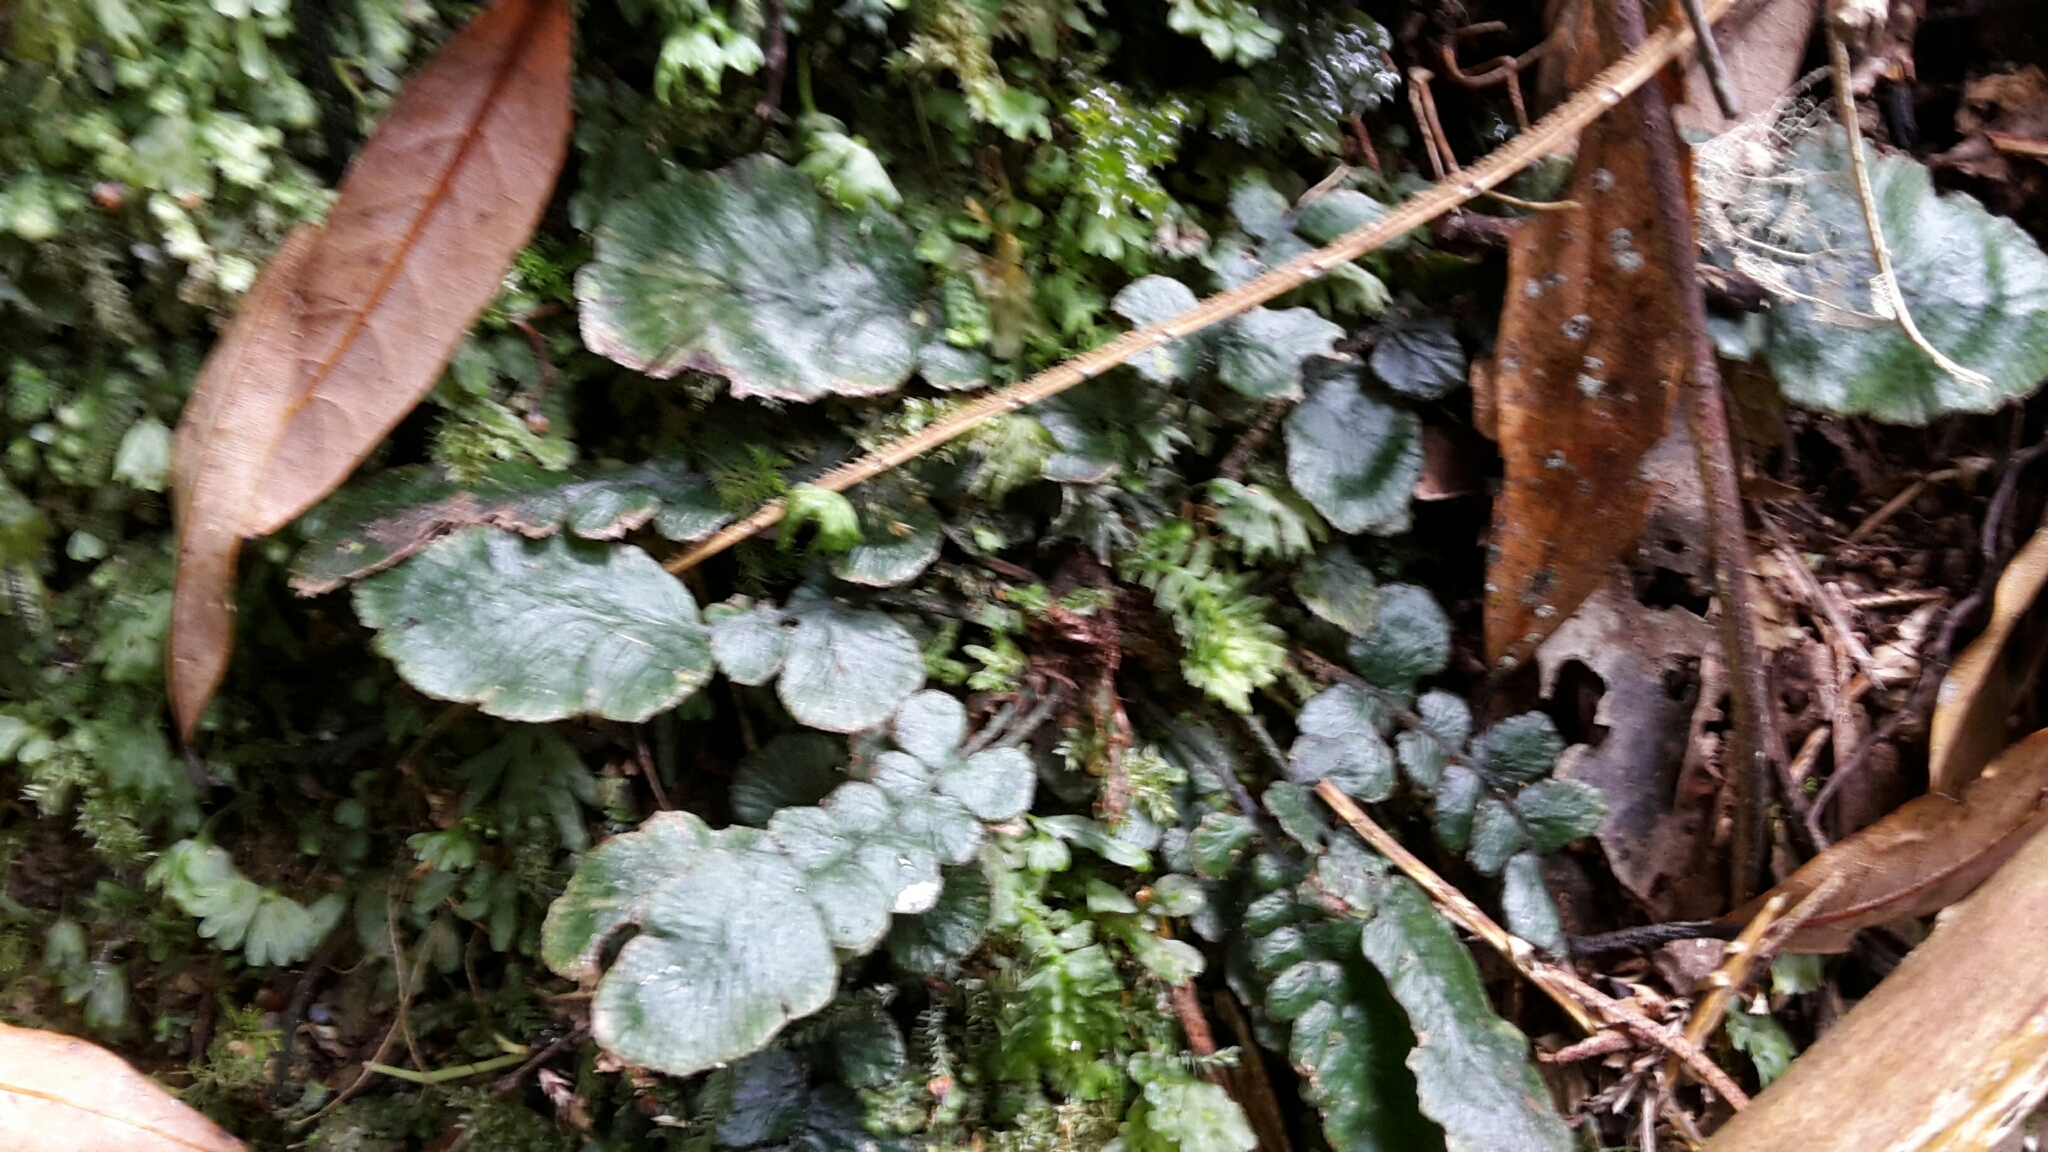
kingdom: Plantae
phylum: Tracheophyta
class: Polypodiopsida
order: Polypodiales
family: Blechnaceae
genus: Cranfillia
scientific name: Cranfillia nigra
